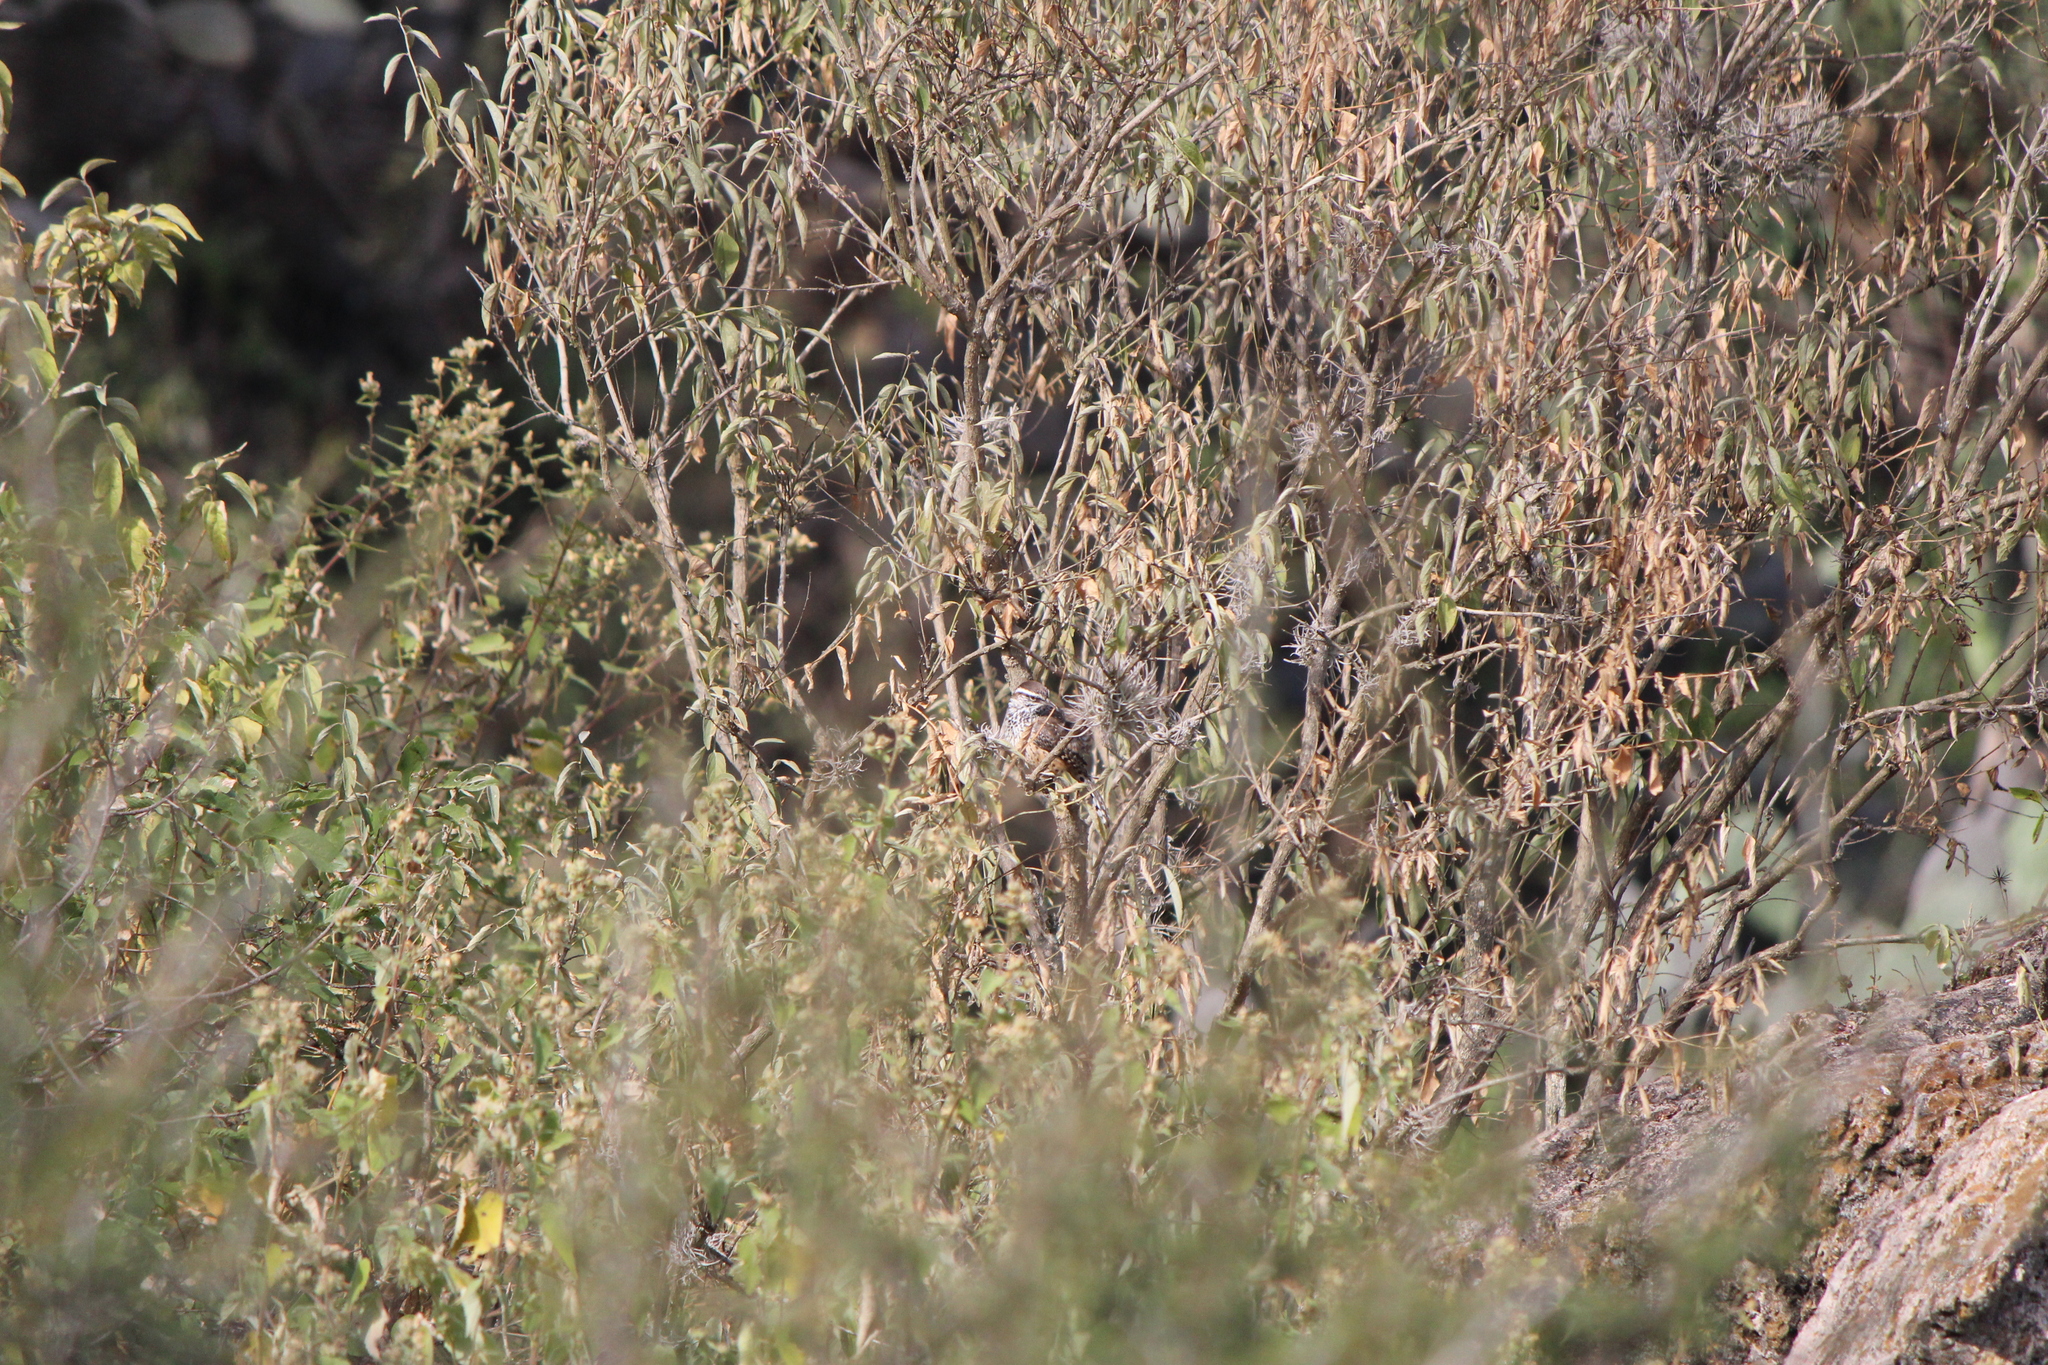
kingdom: Animalia
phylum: Chordata
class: Aves
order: Passeriformes
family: Troglodytidae
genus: Campylorhynchus
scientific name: Campylorhynchus brunneicapillus
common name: Cactus wren
